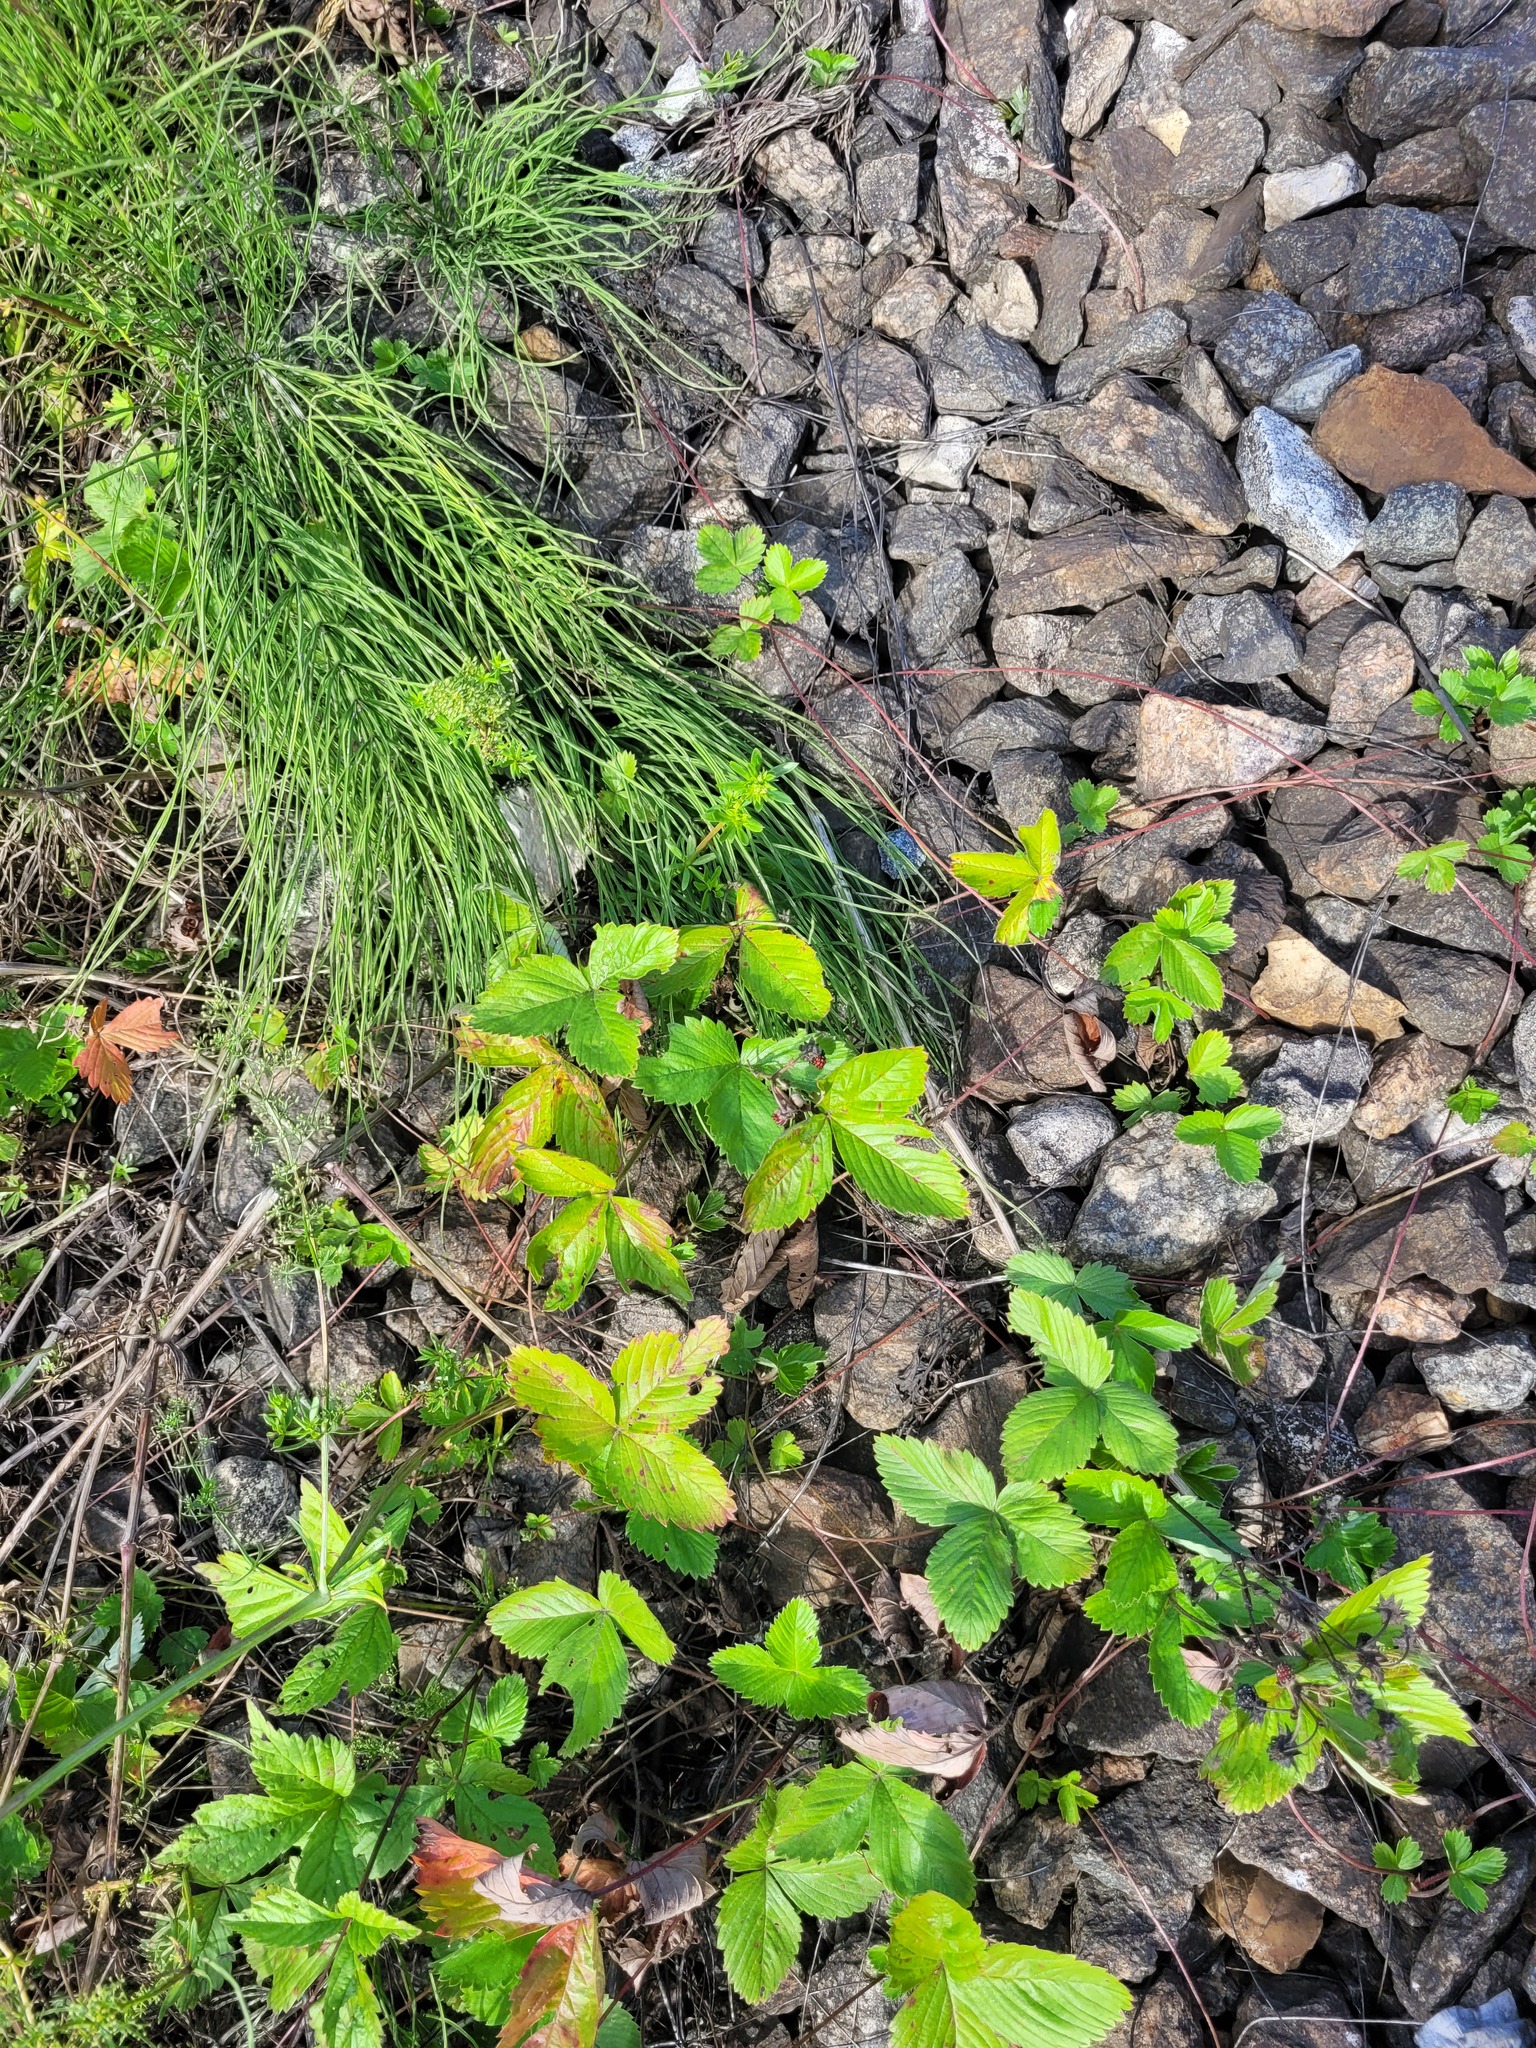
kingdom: Plantae
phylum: Tracheophyta
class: Magnoliopsida
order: Rosales
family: Rosaceae
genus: Fragaria
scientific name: Fragaria vesca
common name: Wild strawberry
